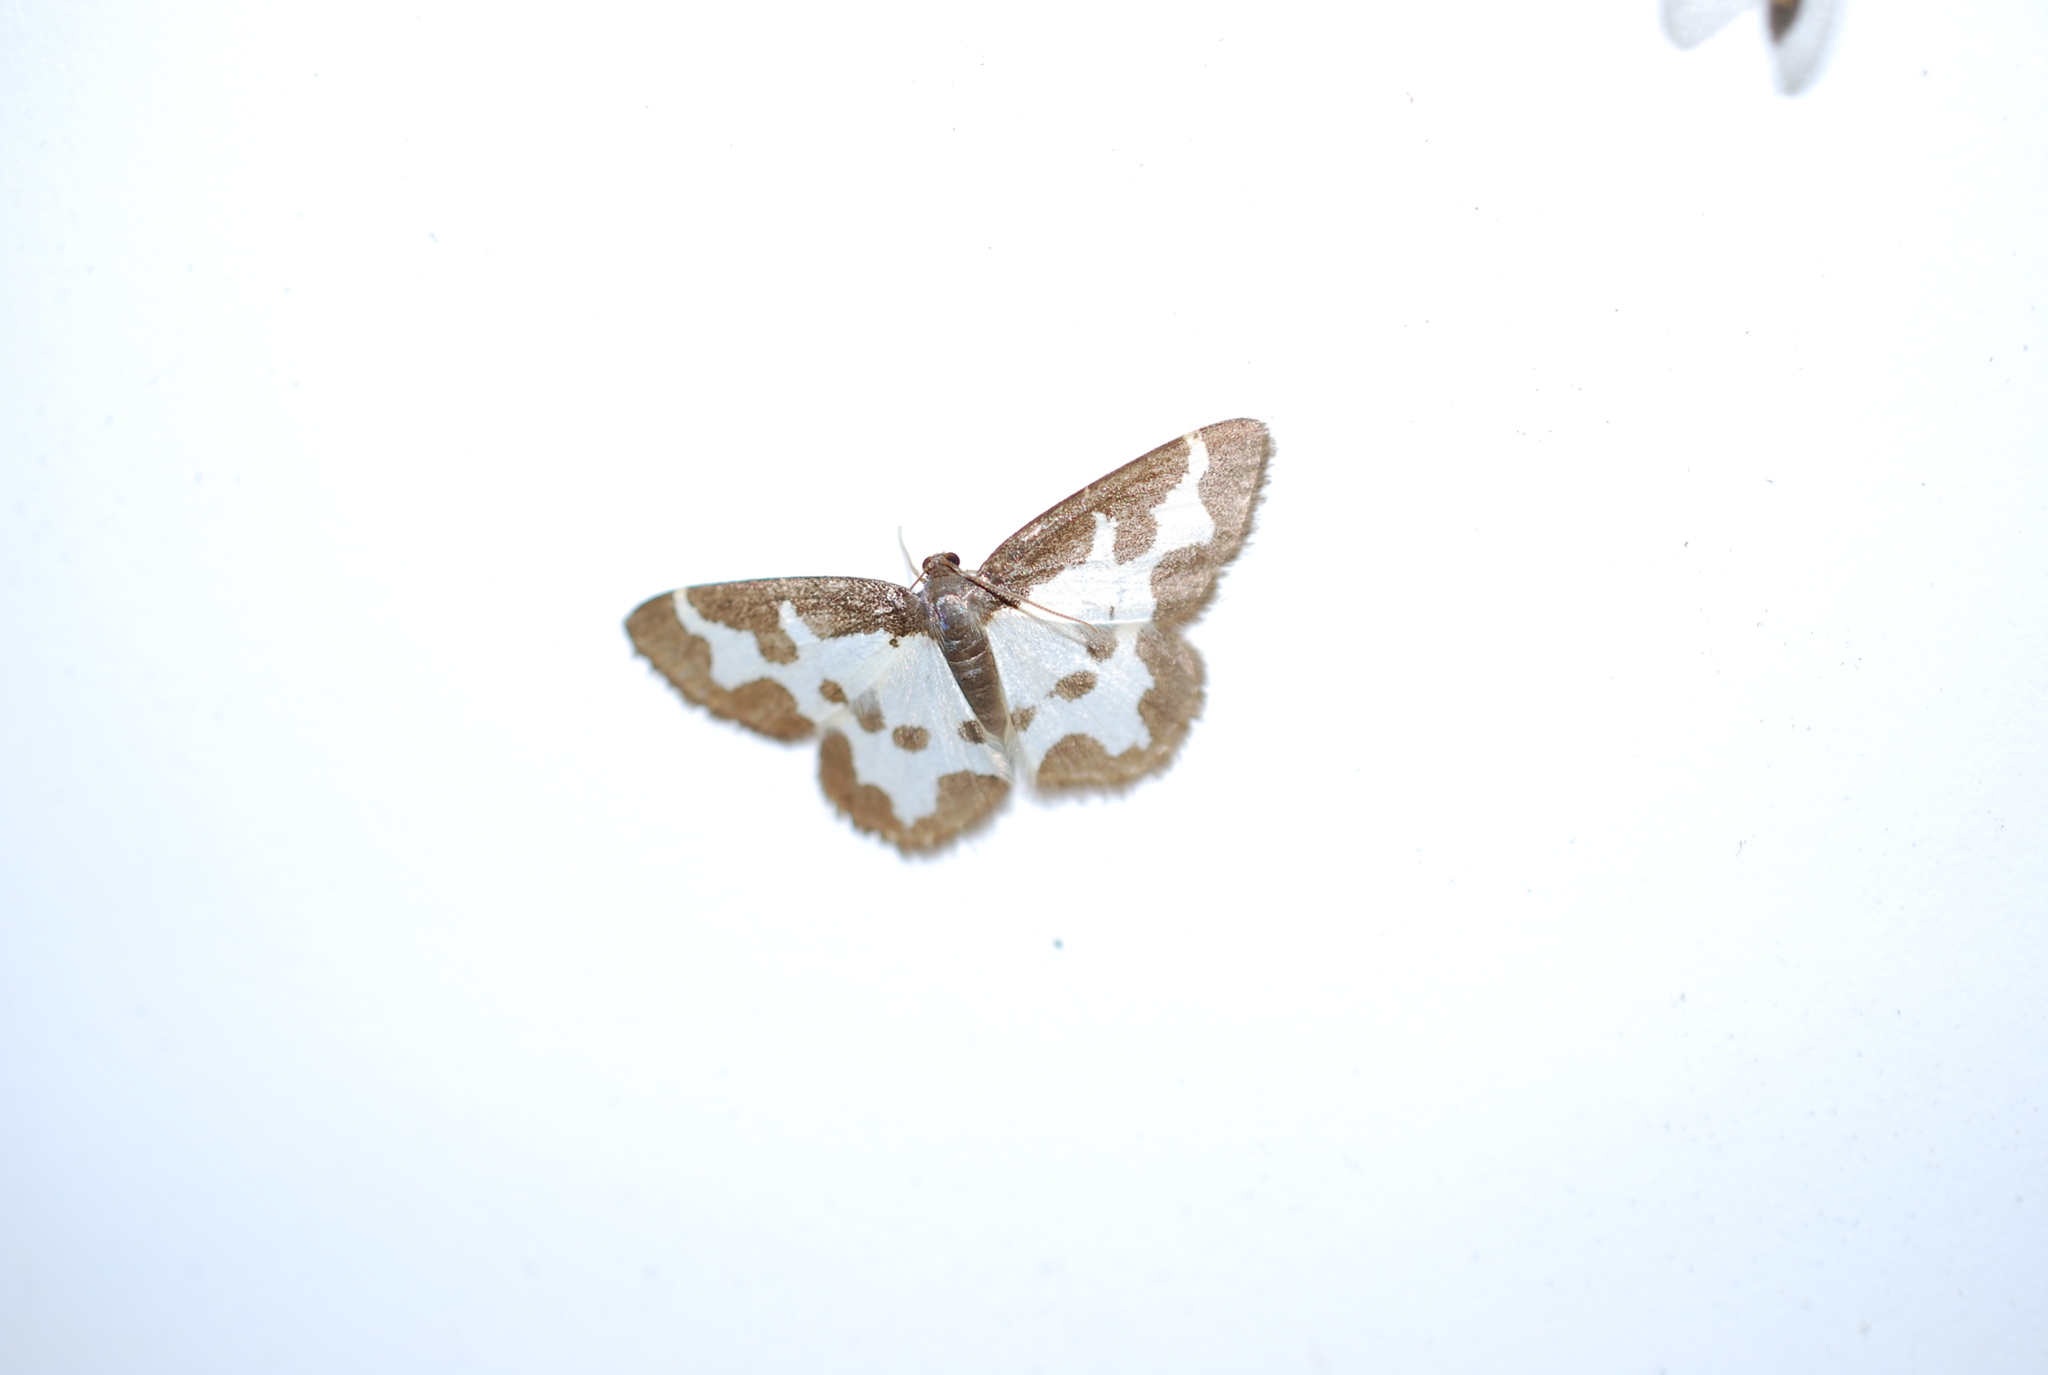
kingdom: Animalia
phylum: Arthropoda
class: Insecta
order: Lepidoptera
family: Geometridae
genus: Lomaspilis
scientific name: Lomaspilis marginata
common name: Clouded border
